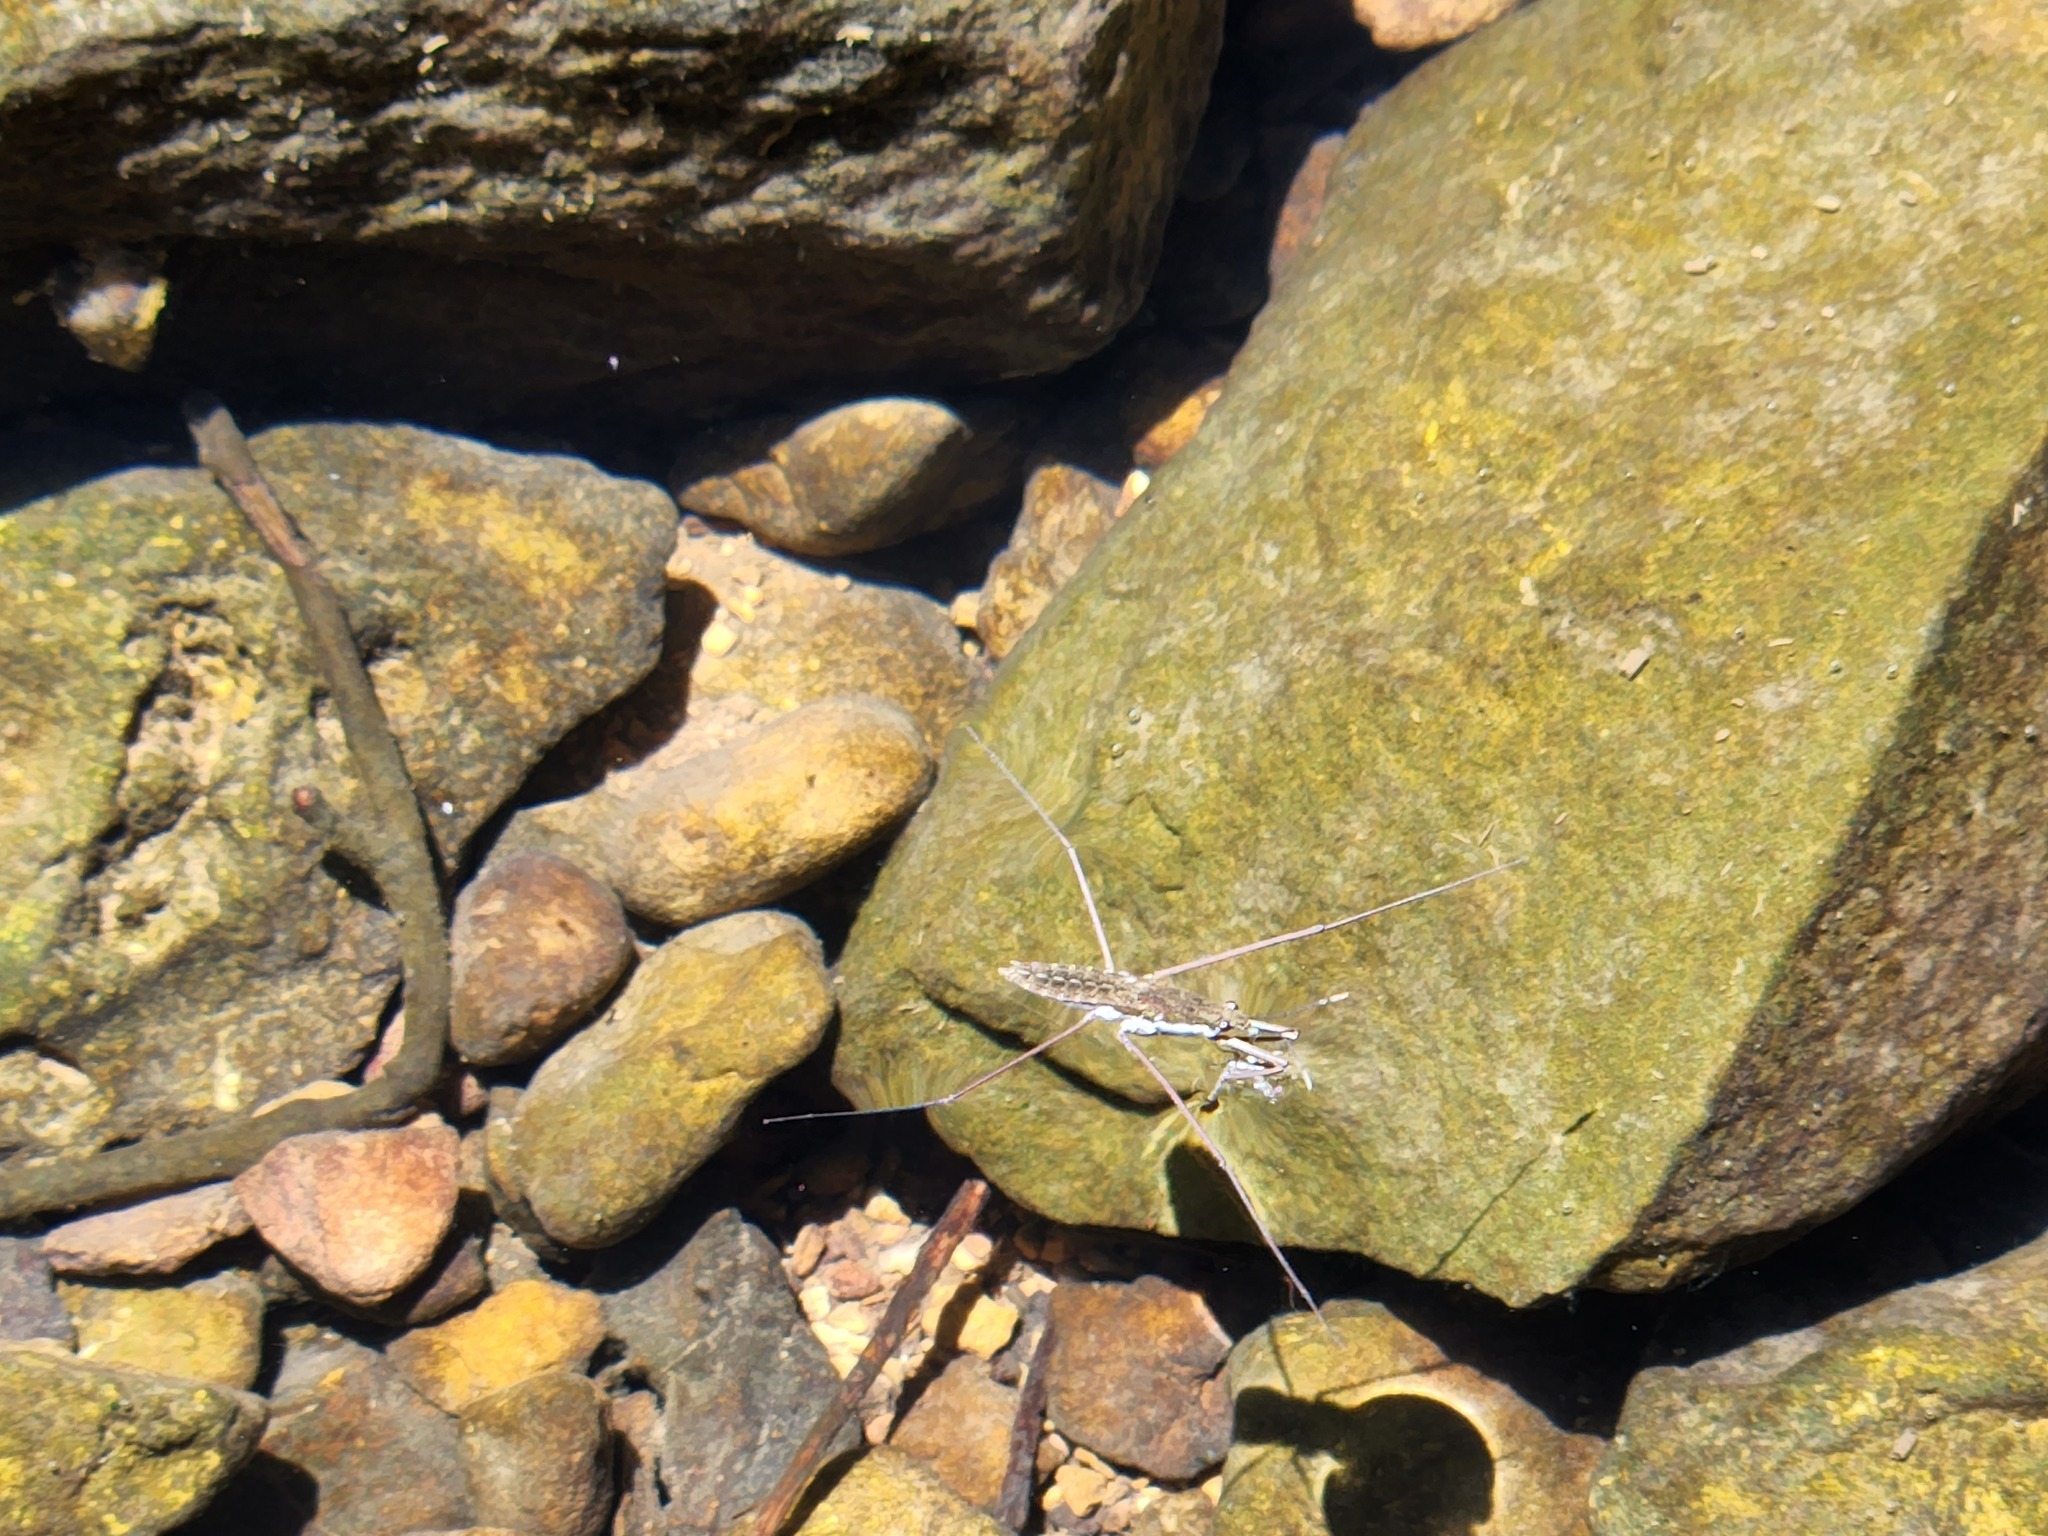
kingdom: Animalia
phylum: Arthropoda
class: Insecta
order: Hemiptera
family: Gerridae
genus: Aquarius
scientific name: Aquarius
